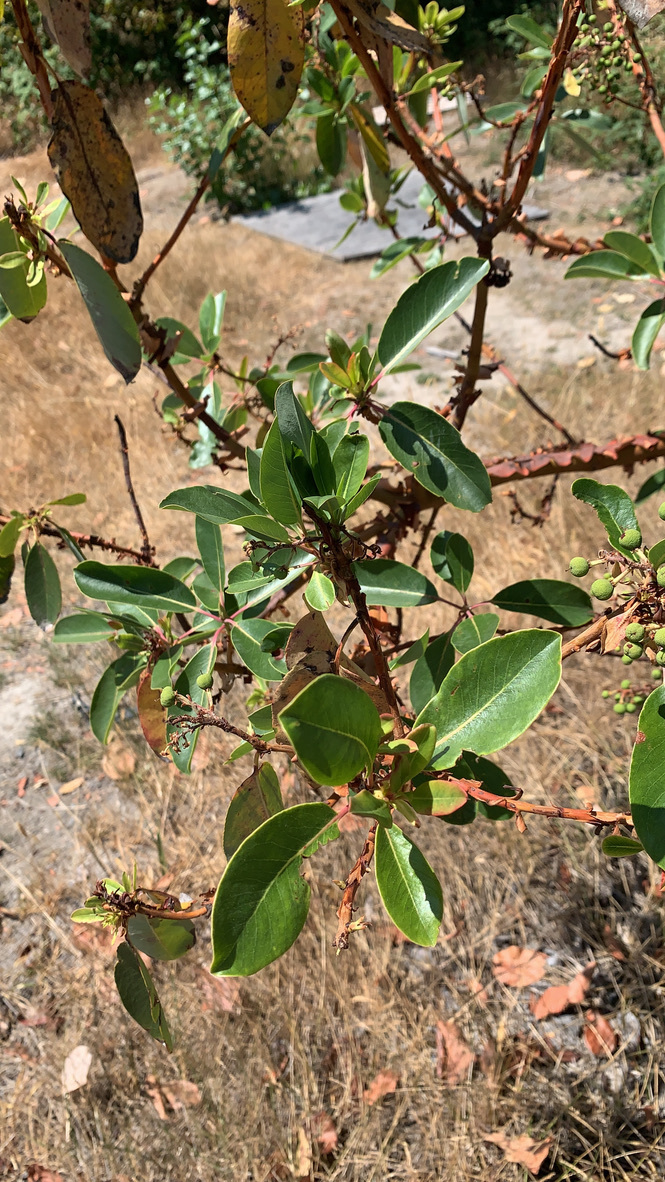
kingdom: Plantae
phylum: Tracheophyta
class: Magnoliopsida
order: Ericales
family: Ericaceae
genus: Arbutus
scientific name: Arbutus menziesii
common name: Pacific madrone
